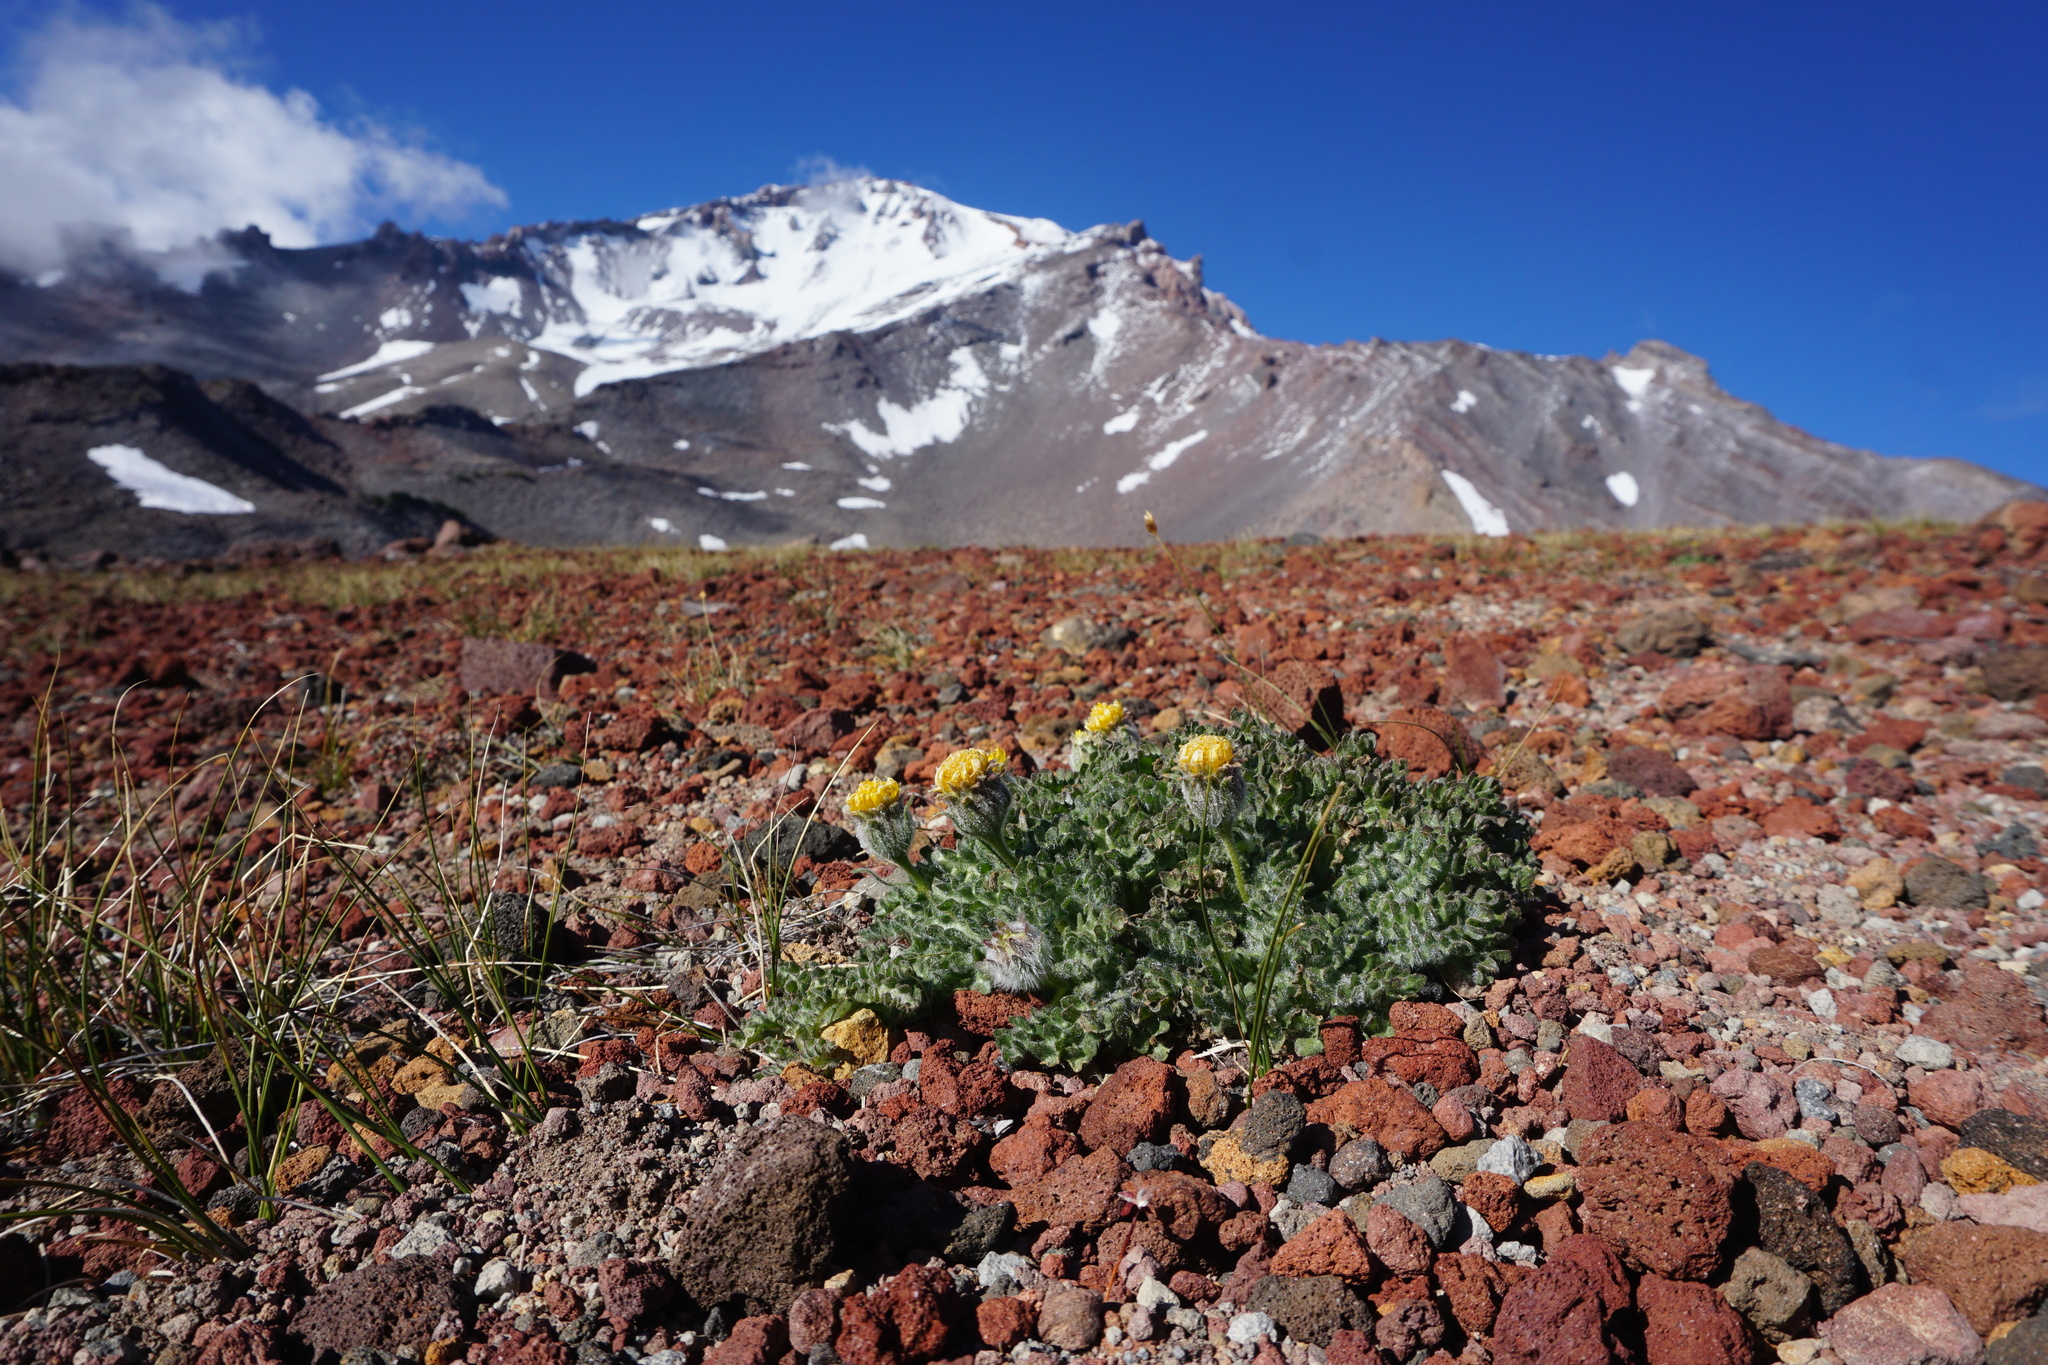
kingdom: Plantae
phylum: Tracheophyta
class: Magnoliopsida
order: Asterales
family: Asteraceae
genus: Hulsea
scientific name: Hulsea nana
